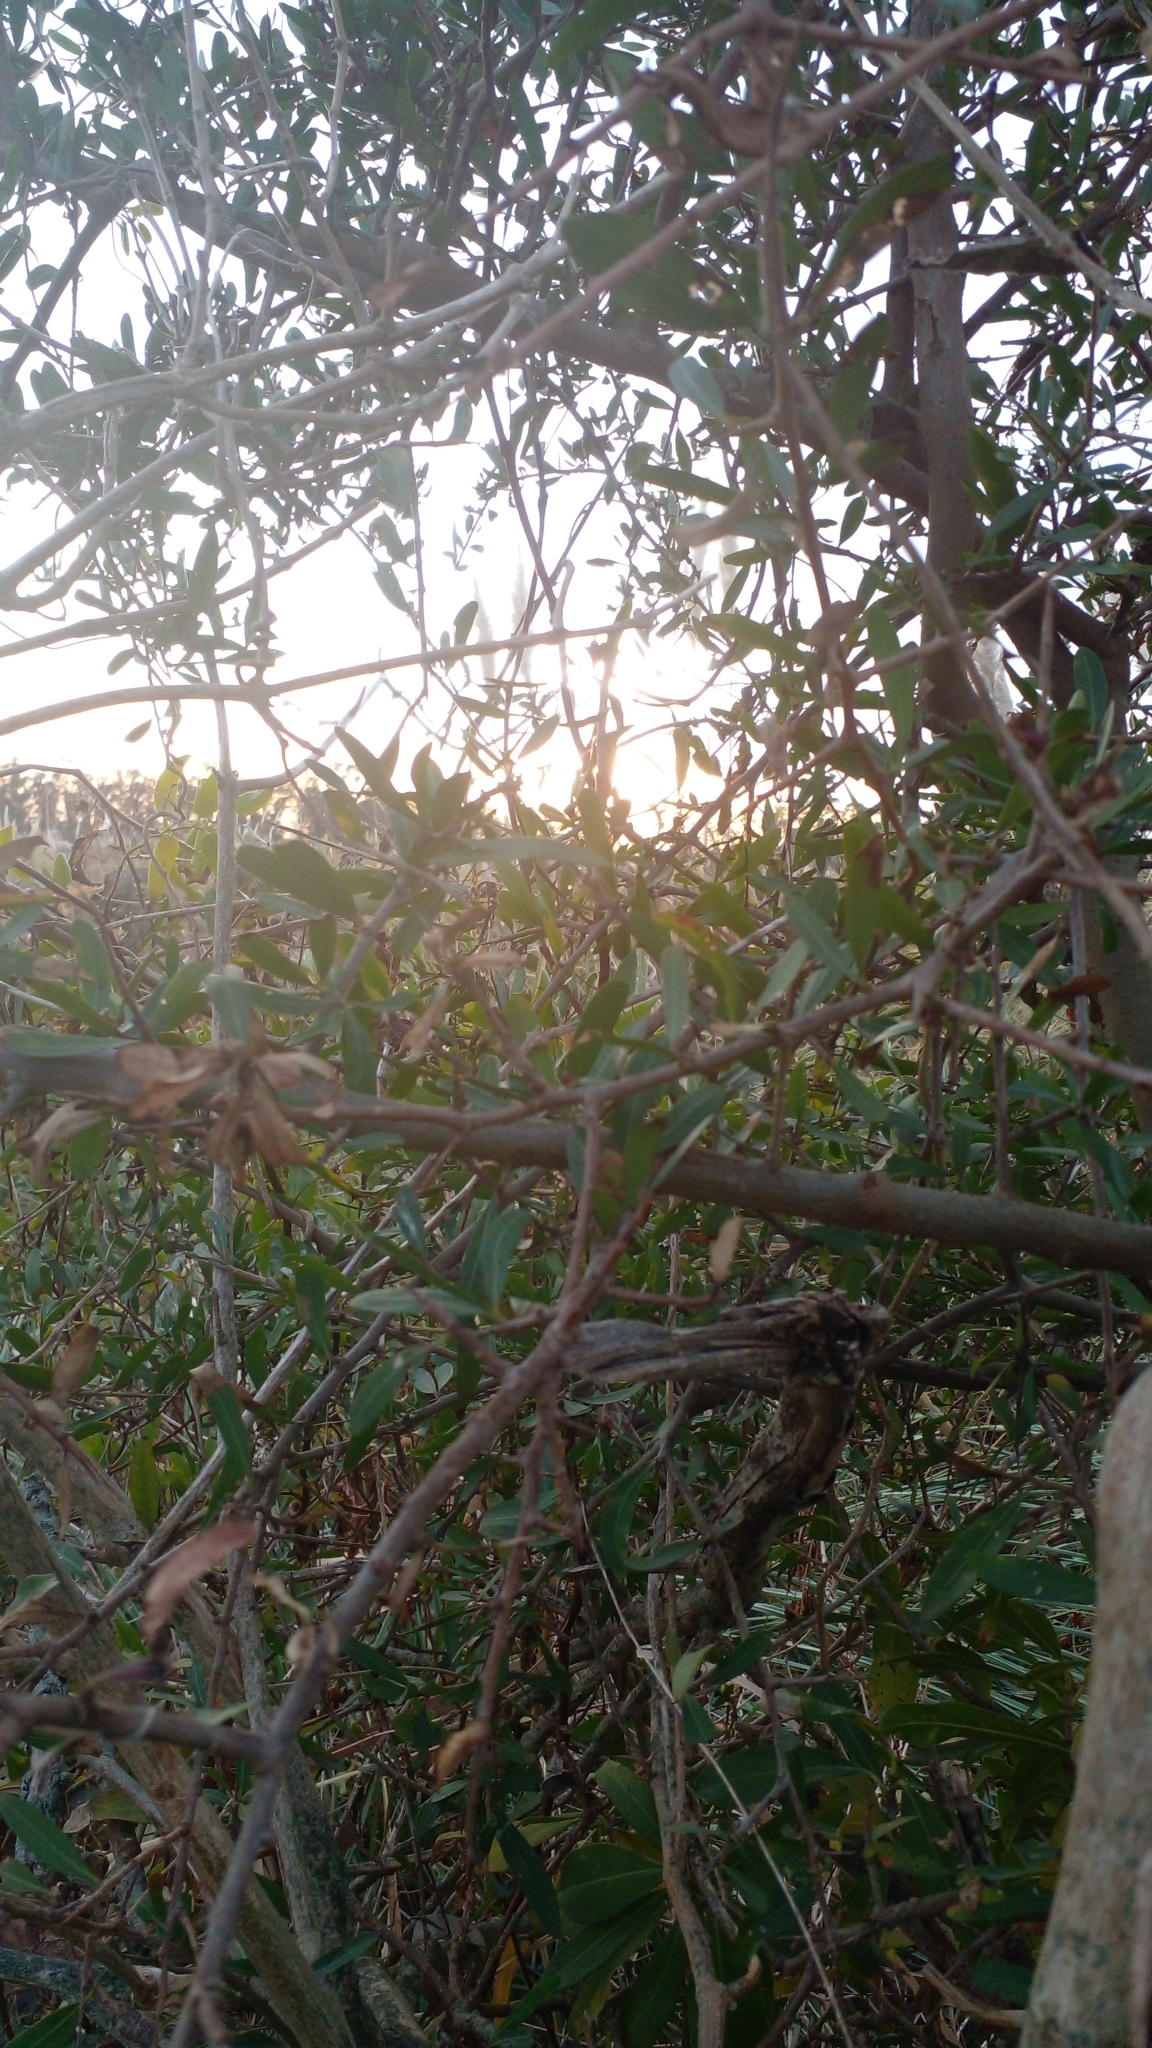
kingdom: Plantae
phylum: Tracheophyta
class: Magnoliopsida
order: Sapindales
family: Anacardiaceae
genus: Schinus
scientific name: Schinus longifolia
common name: Longleaf peppertree
